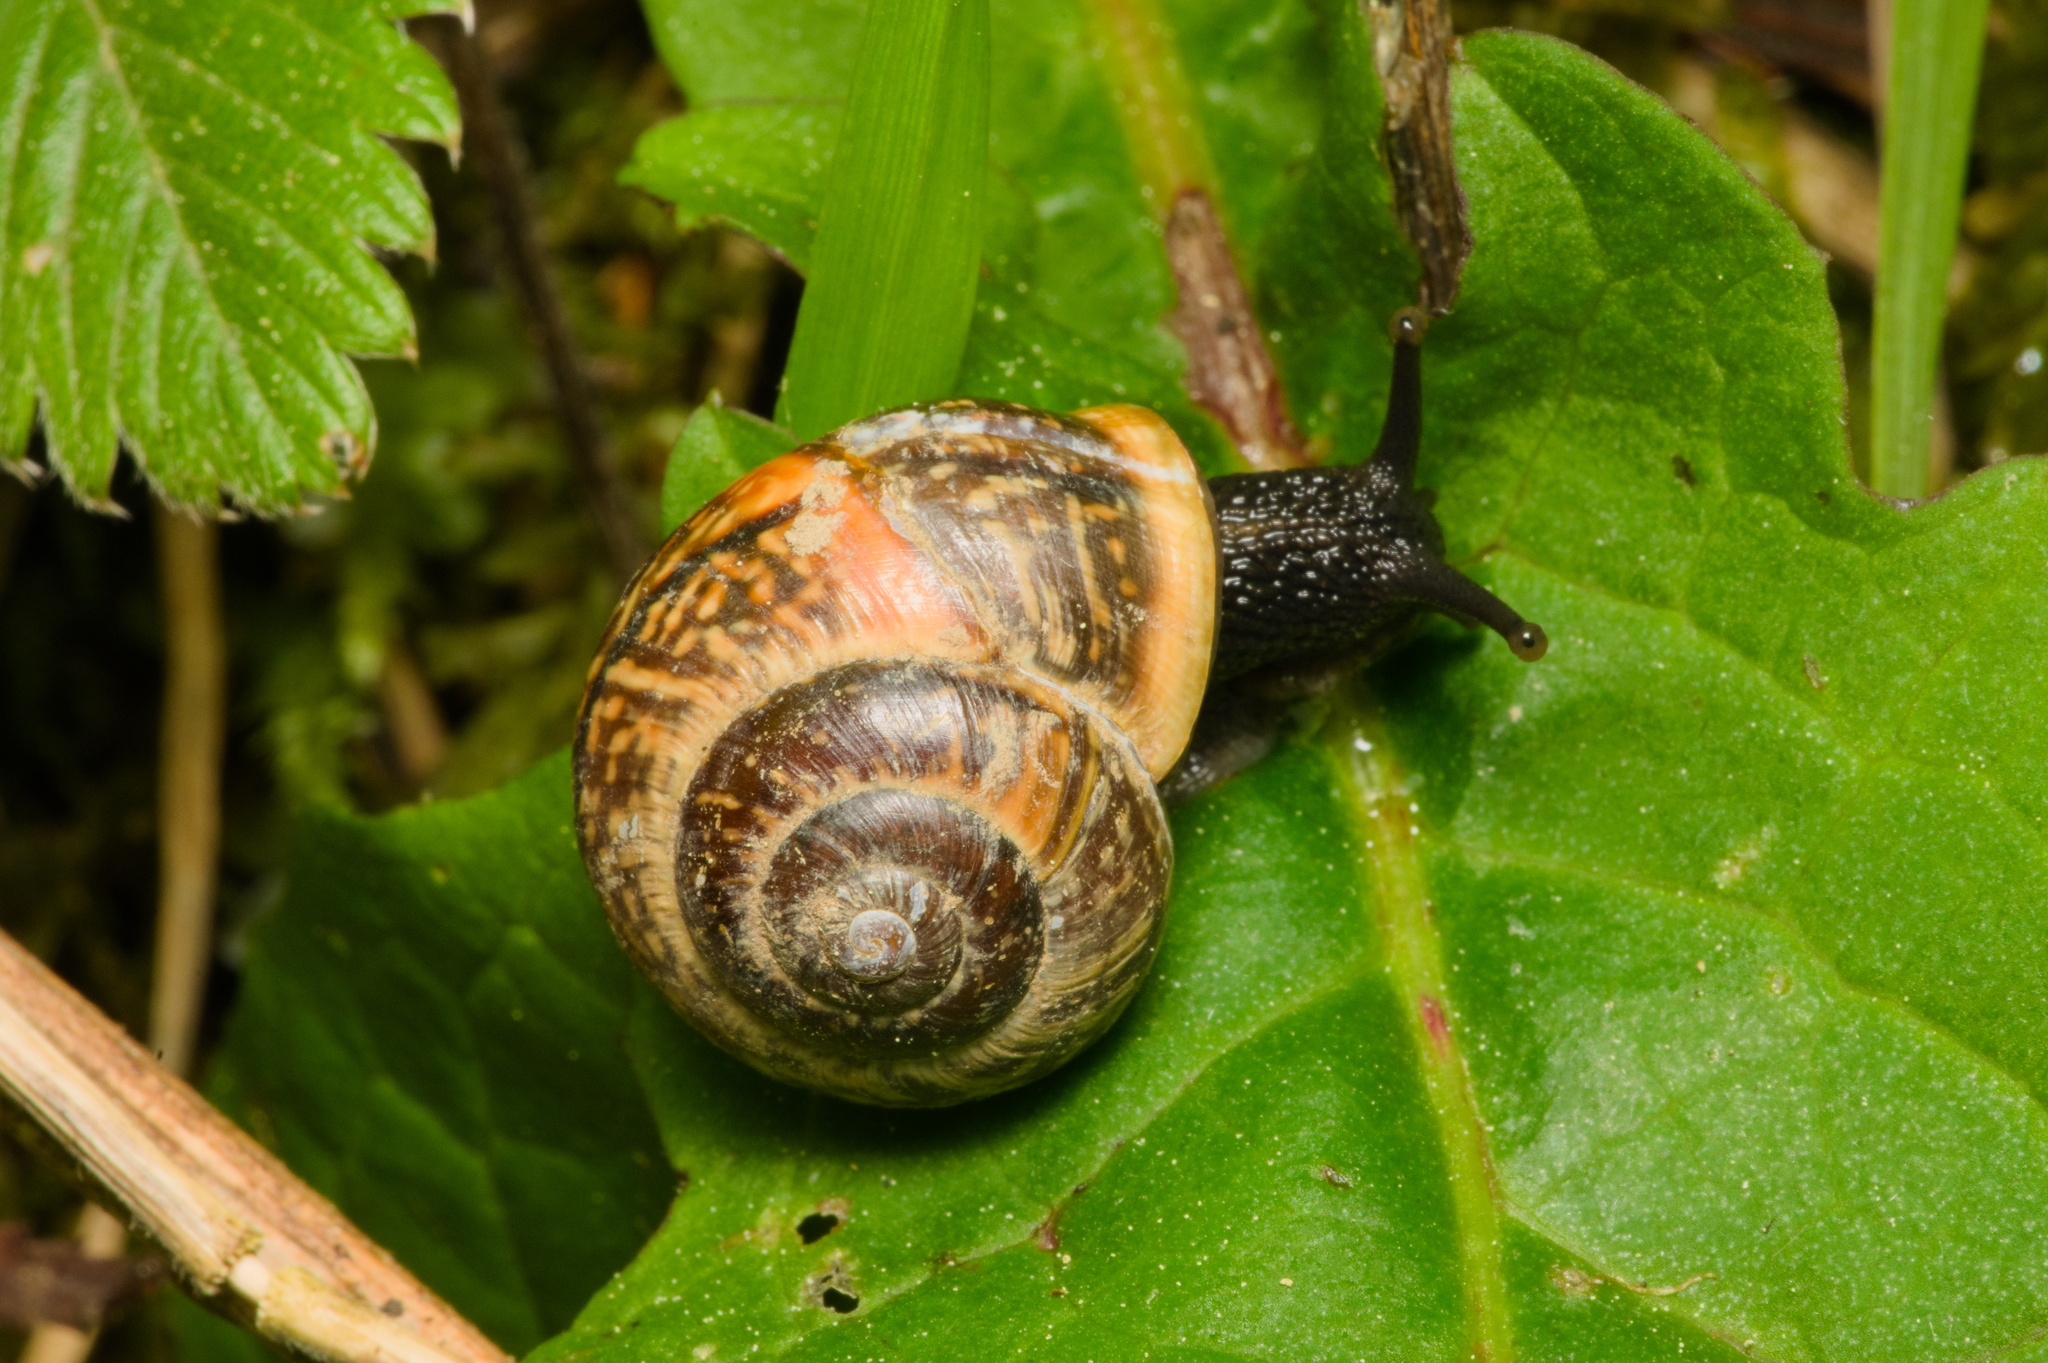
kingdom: Animalia
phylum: Mollusca
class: Gastropoda
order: Stylommatophora
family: Helicidae
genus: Arianta
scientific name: Arianta arbustorum
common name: Copse snail
